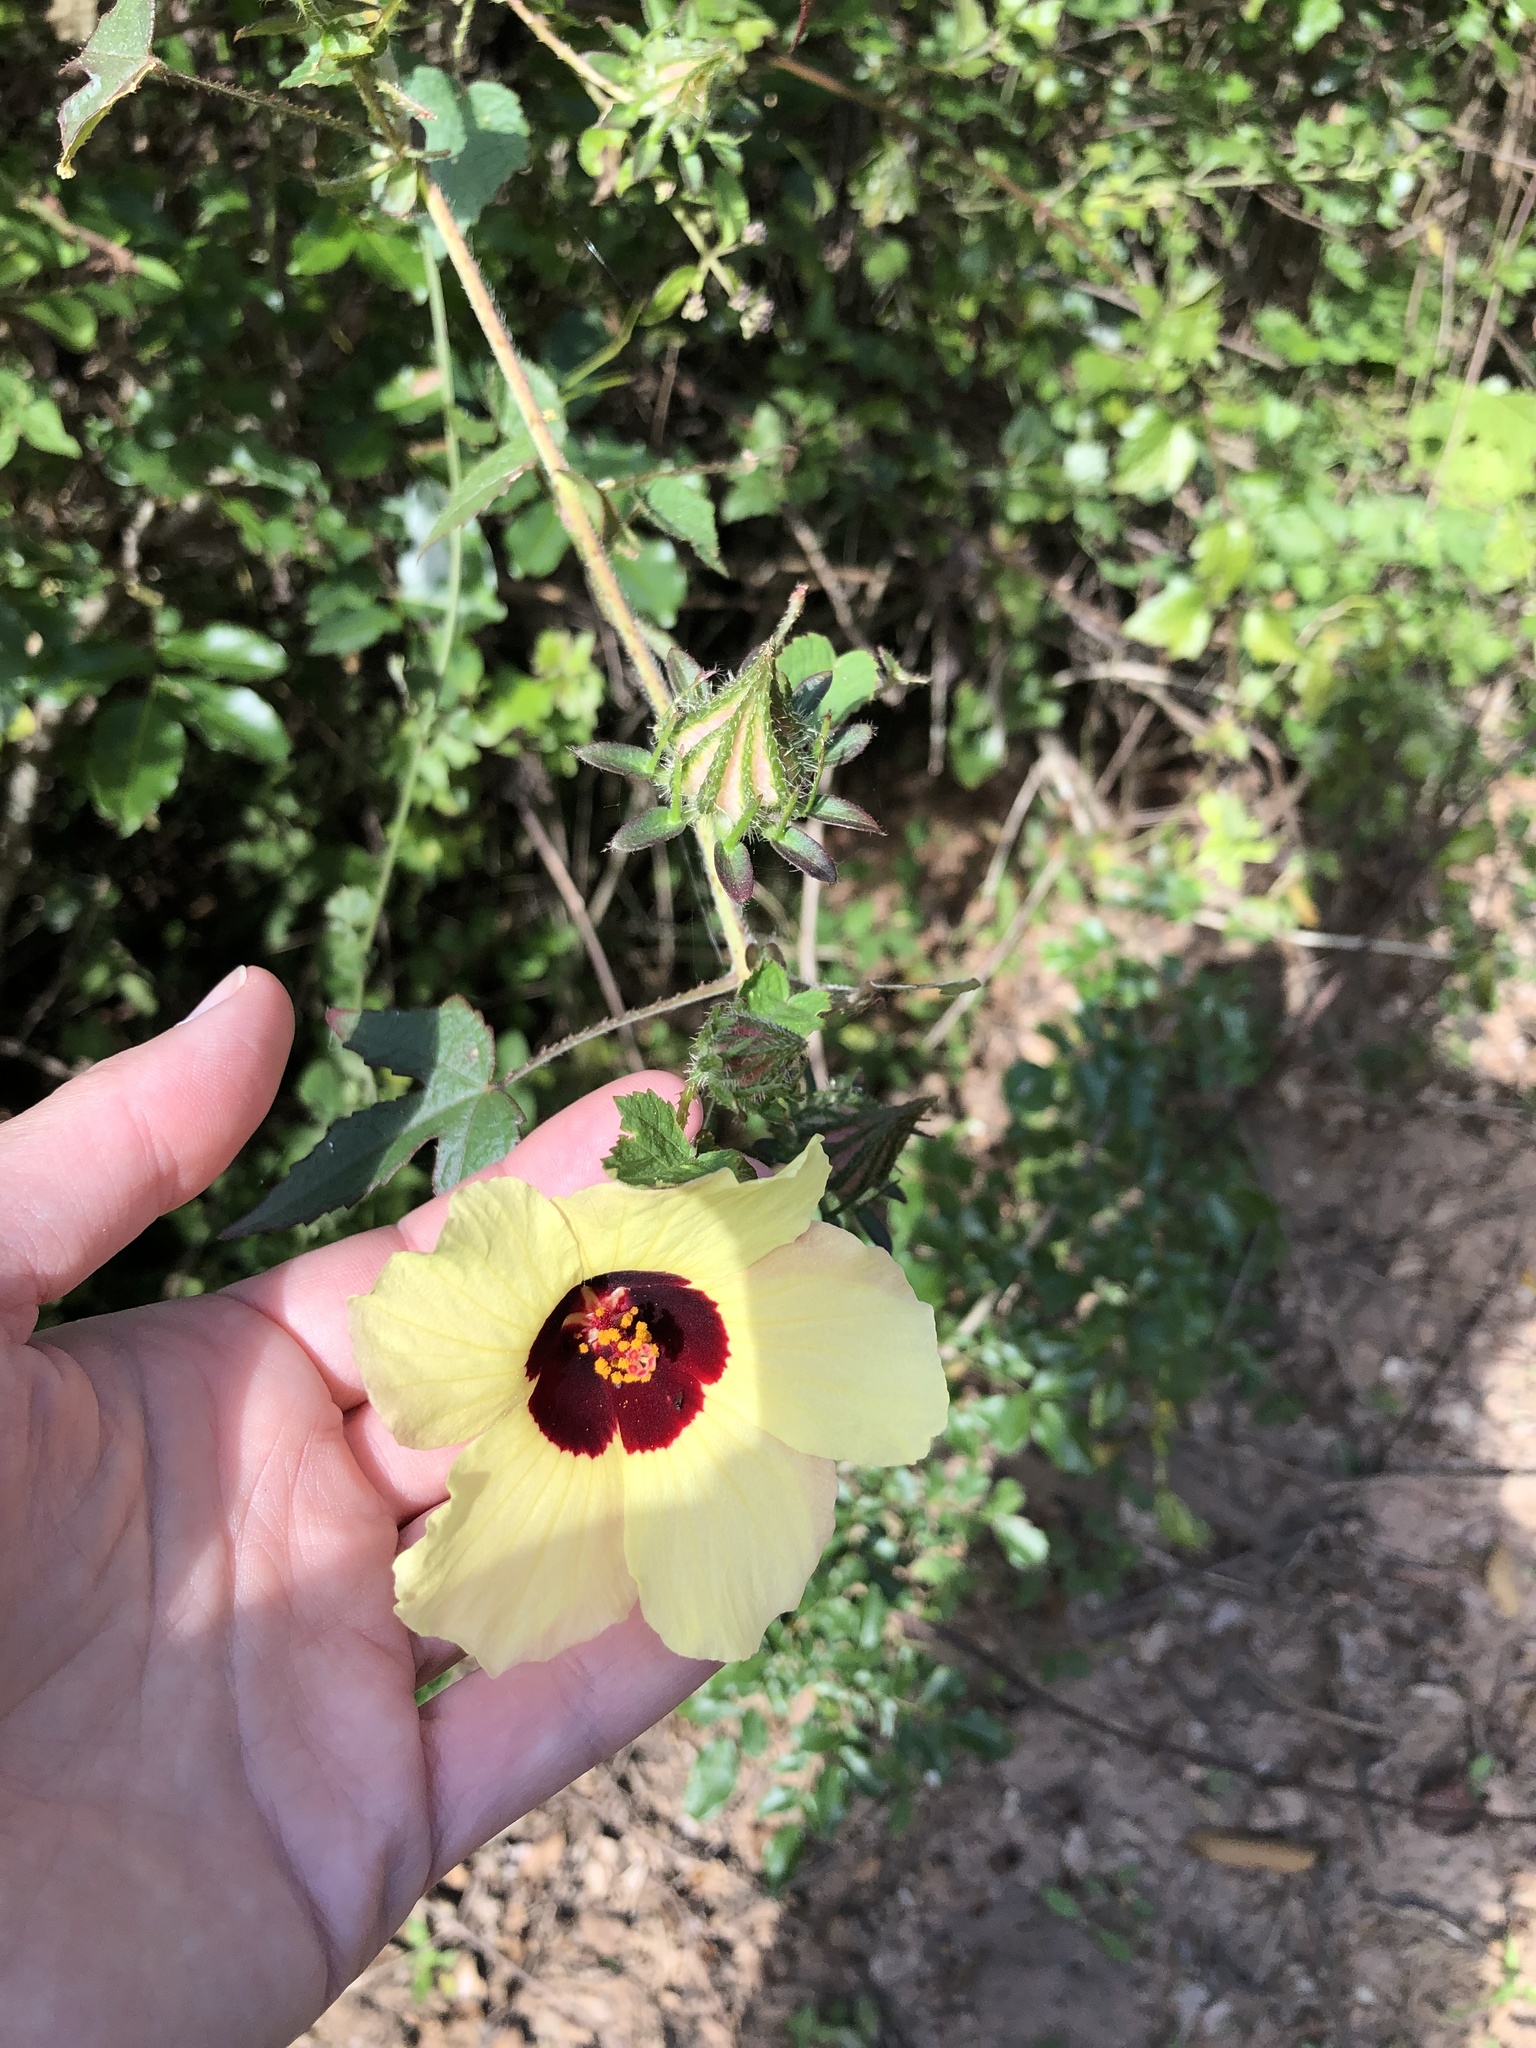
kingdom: Plantae
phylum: Tracheophyta
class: Magnoliopsida
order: Malvales
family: Malvaceae
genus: Hibiscus
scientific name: Hibiscus surattensis
